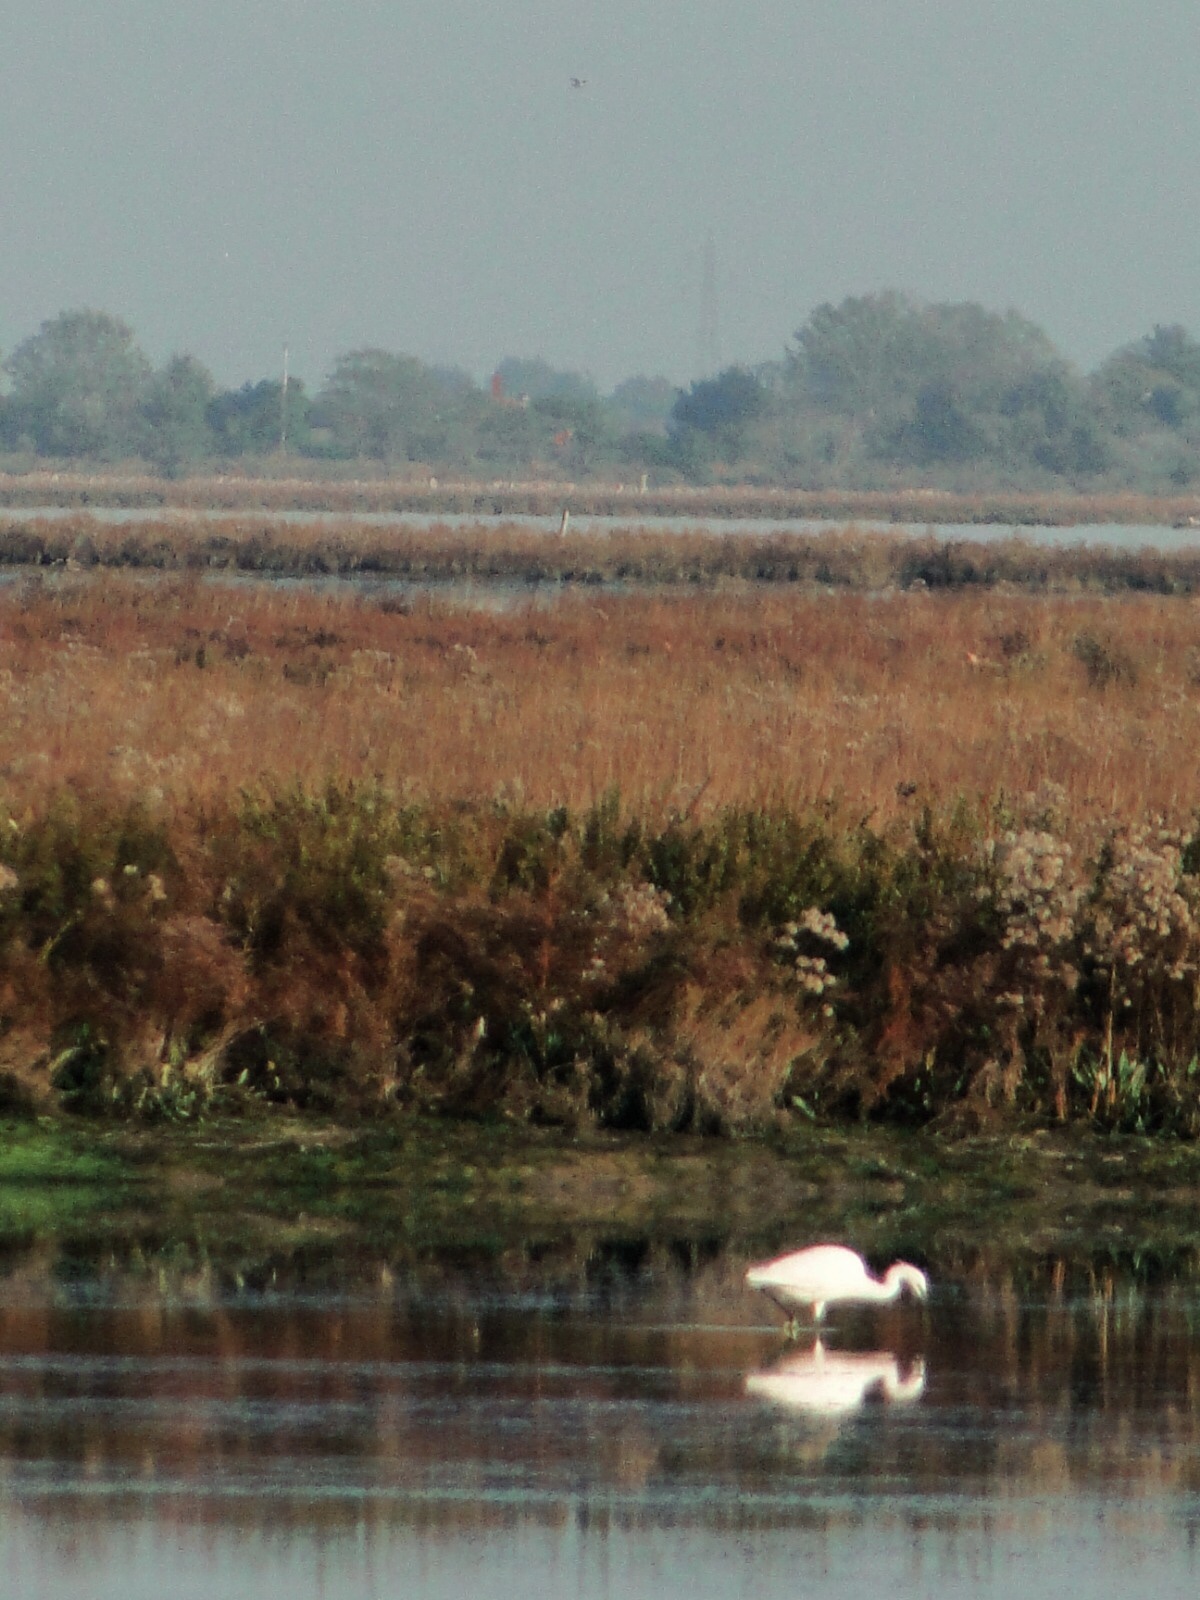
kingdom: Animalia
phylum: Chordata
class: Aves
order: Pelecaniformes
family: Ardeidae
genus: Egretta
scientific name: Egretta garzetta
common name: Little egret
